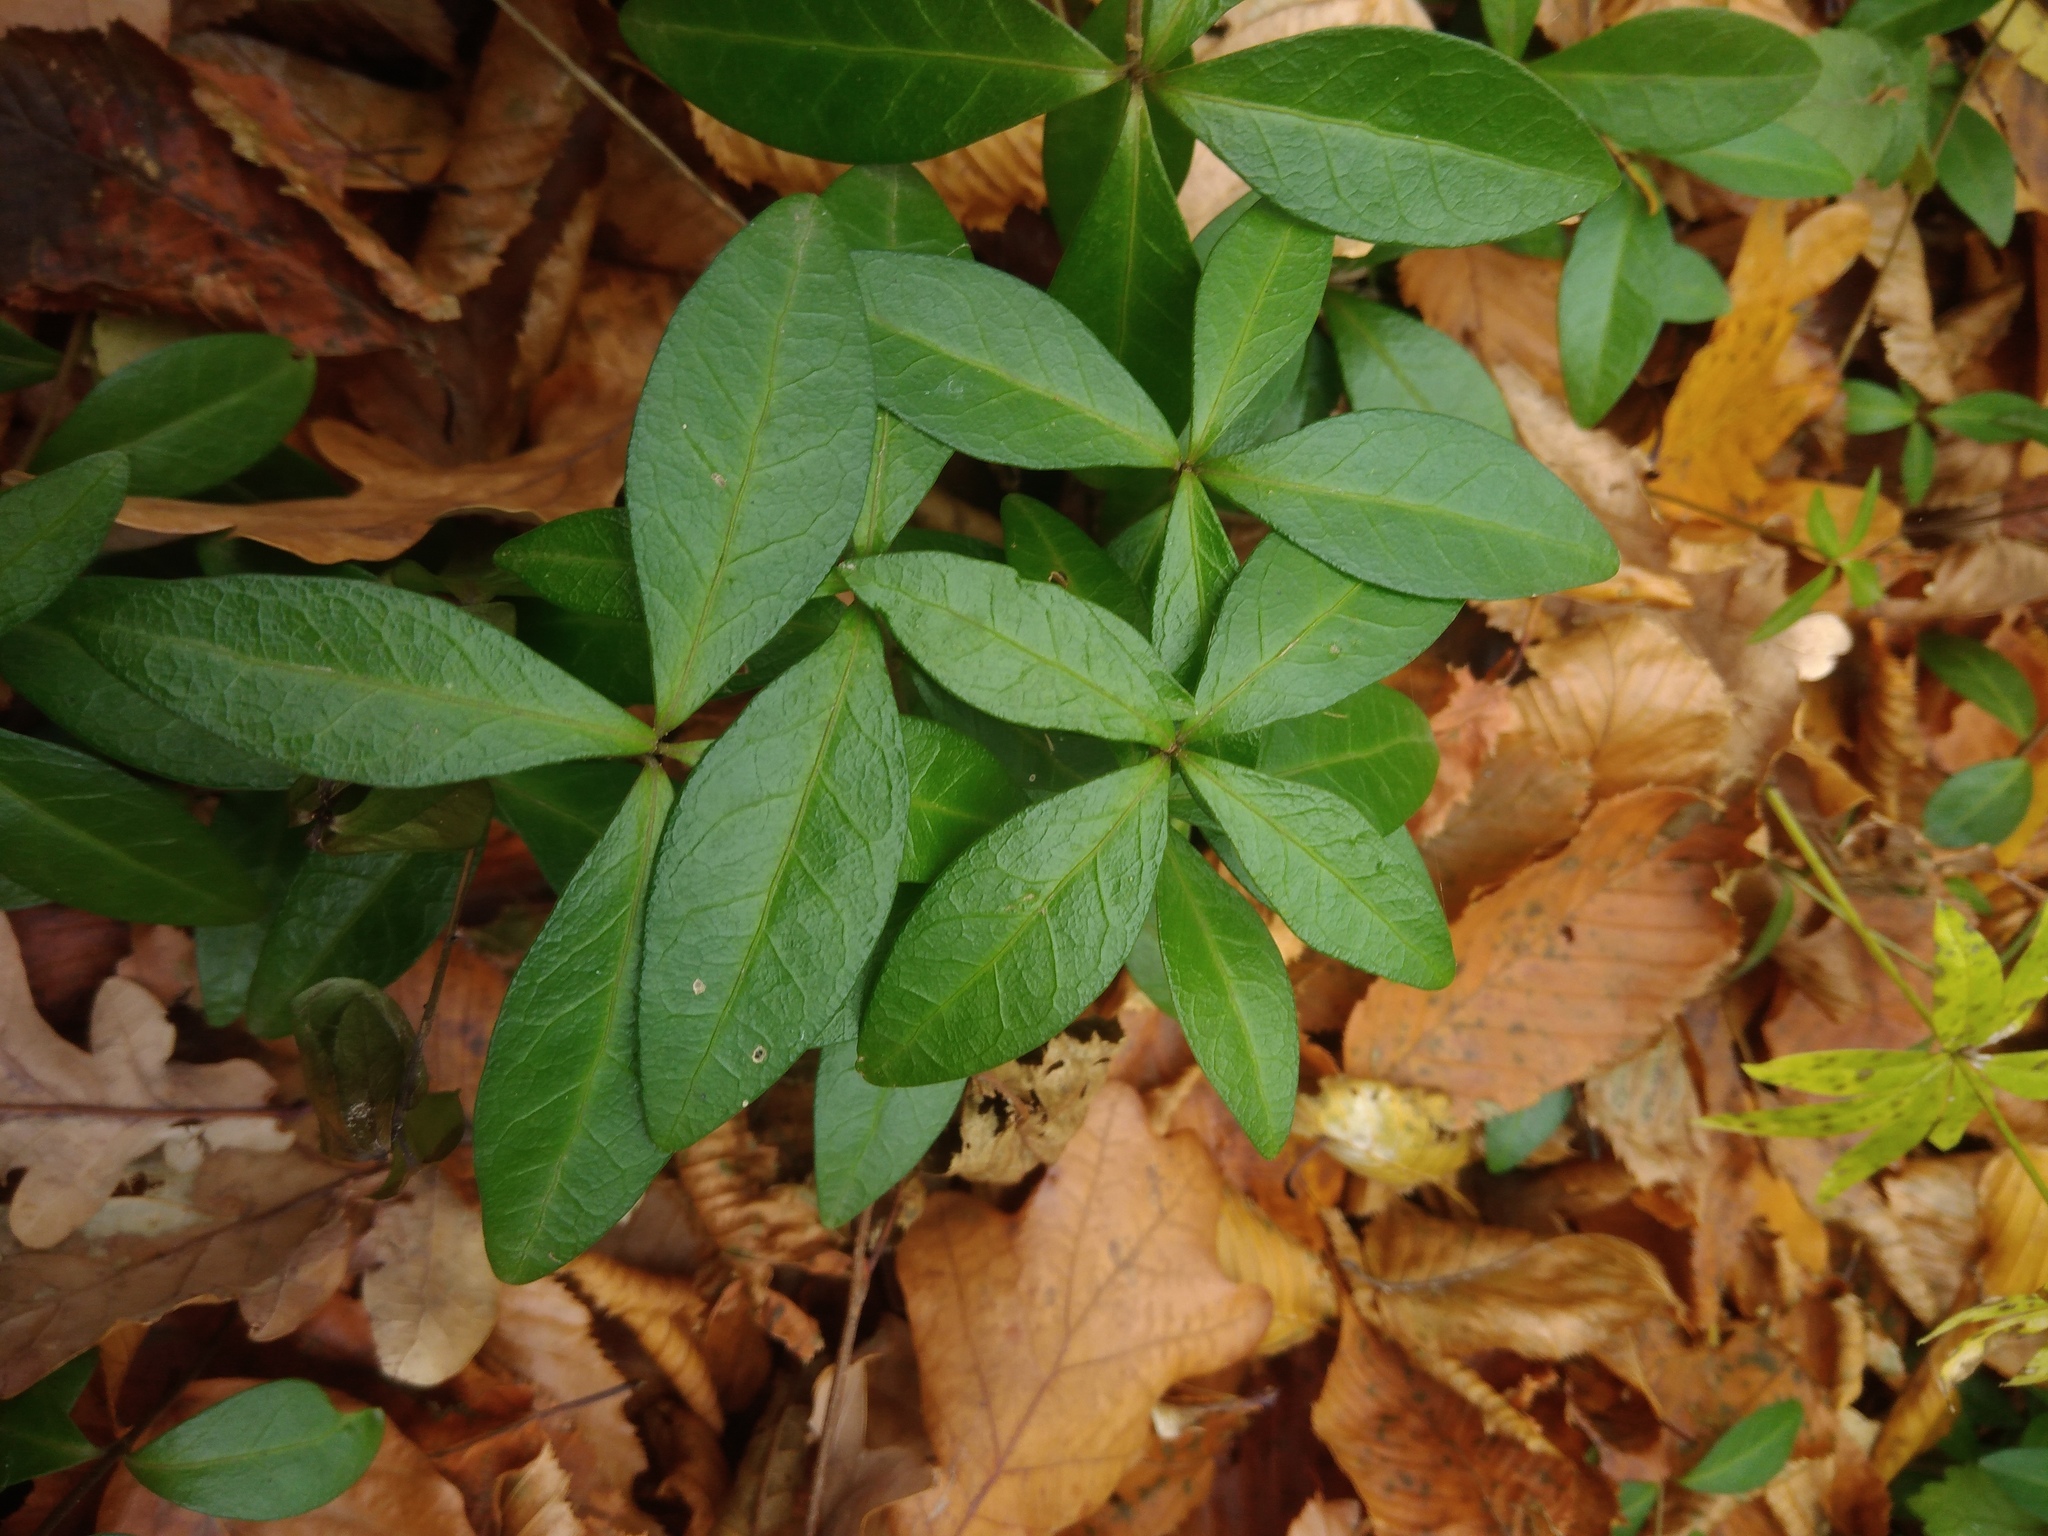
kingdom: Plantae
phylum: Tracheophyta
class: Magnoliopsida
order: Gentianales
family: Apocynaceae
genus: Vinca
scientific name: Vinca minor
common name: Lesser periwinkle
